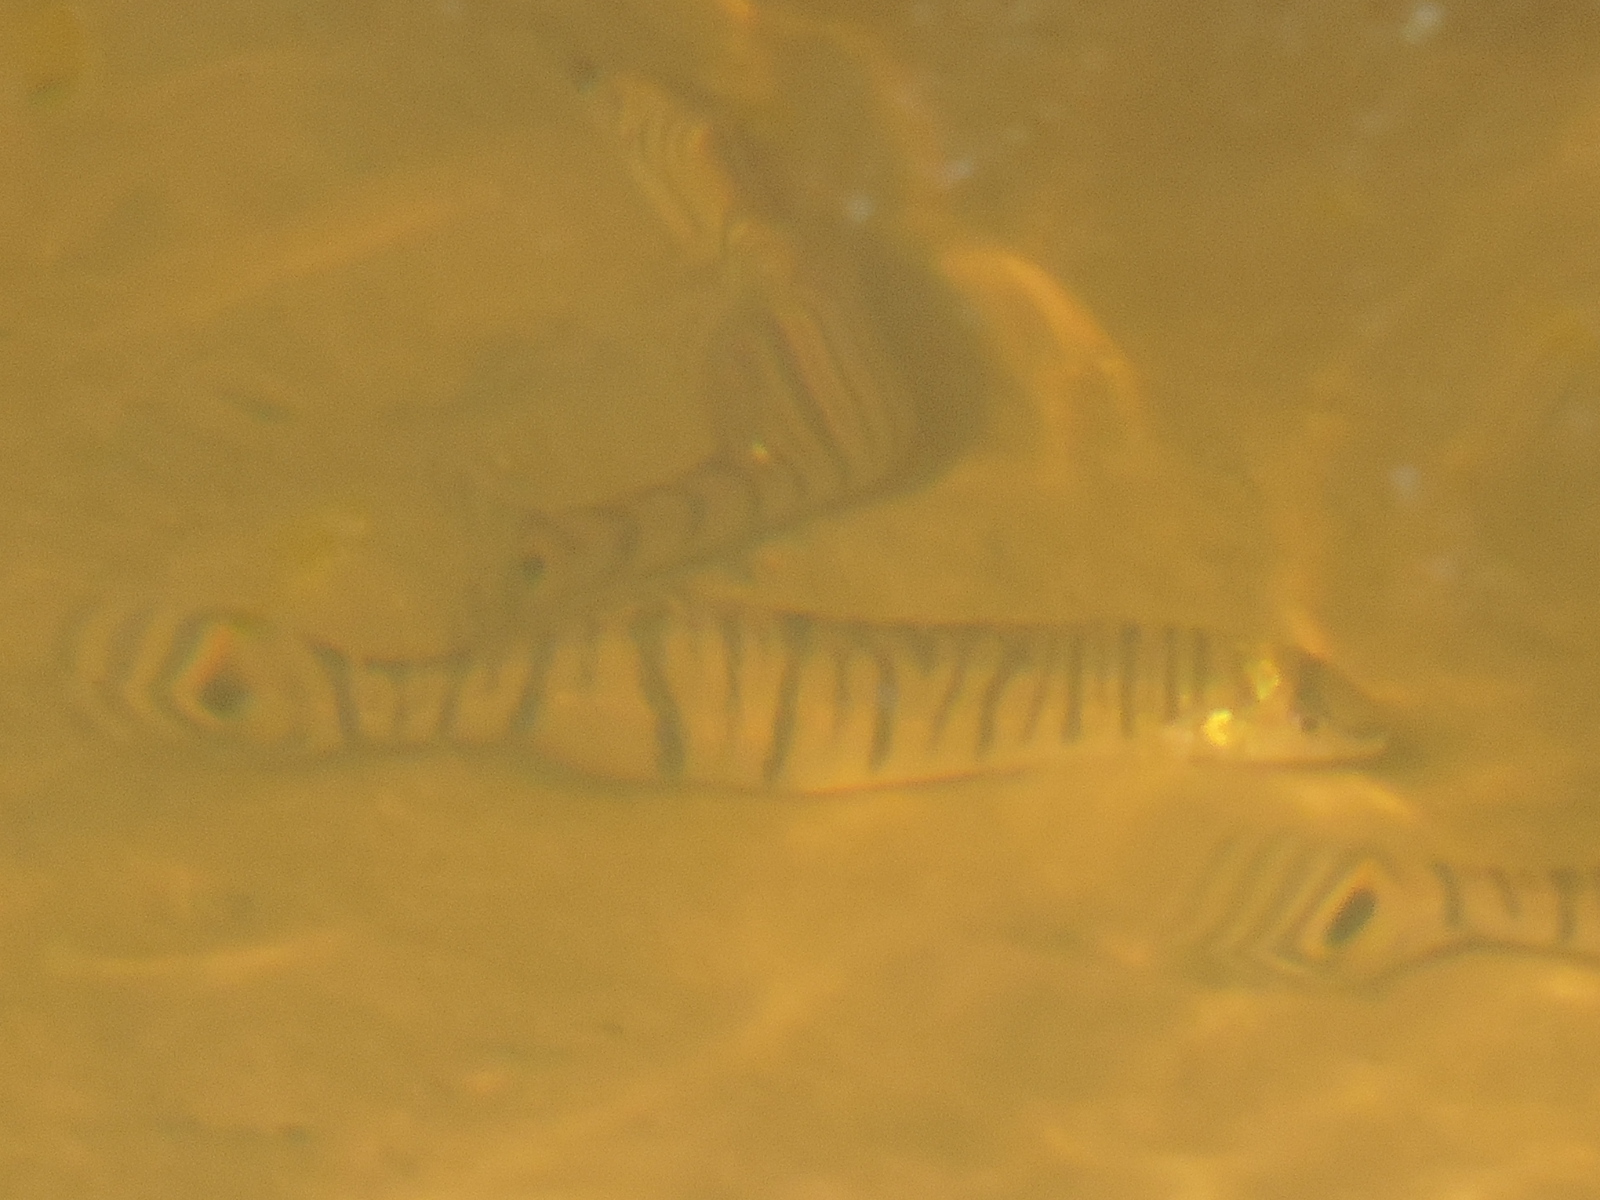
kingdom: Animalia
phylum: Chordata
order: Perciformes
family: Percidae
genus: Percina
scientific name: Percina macrolepida
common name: Bigscale logperch
